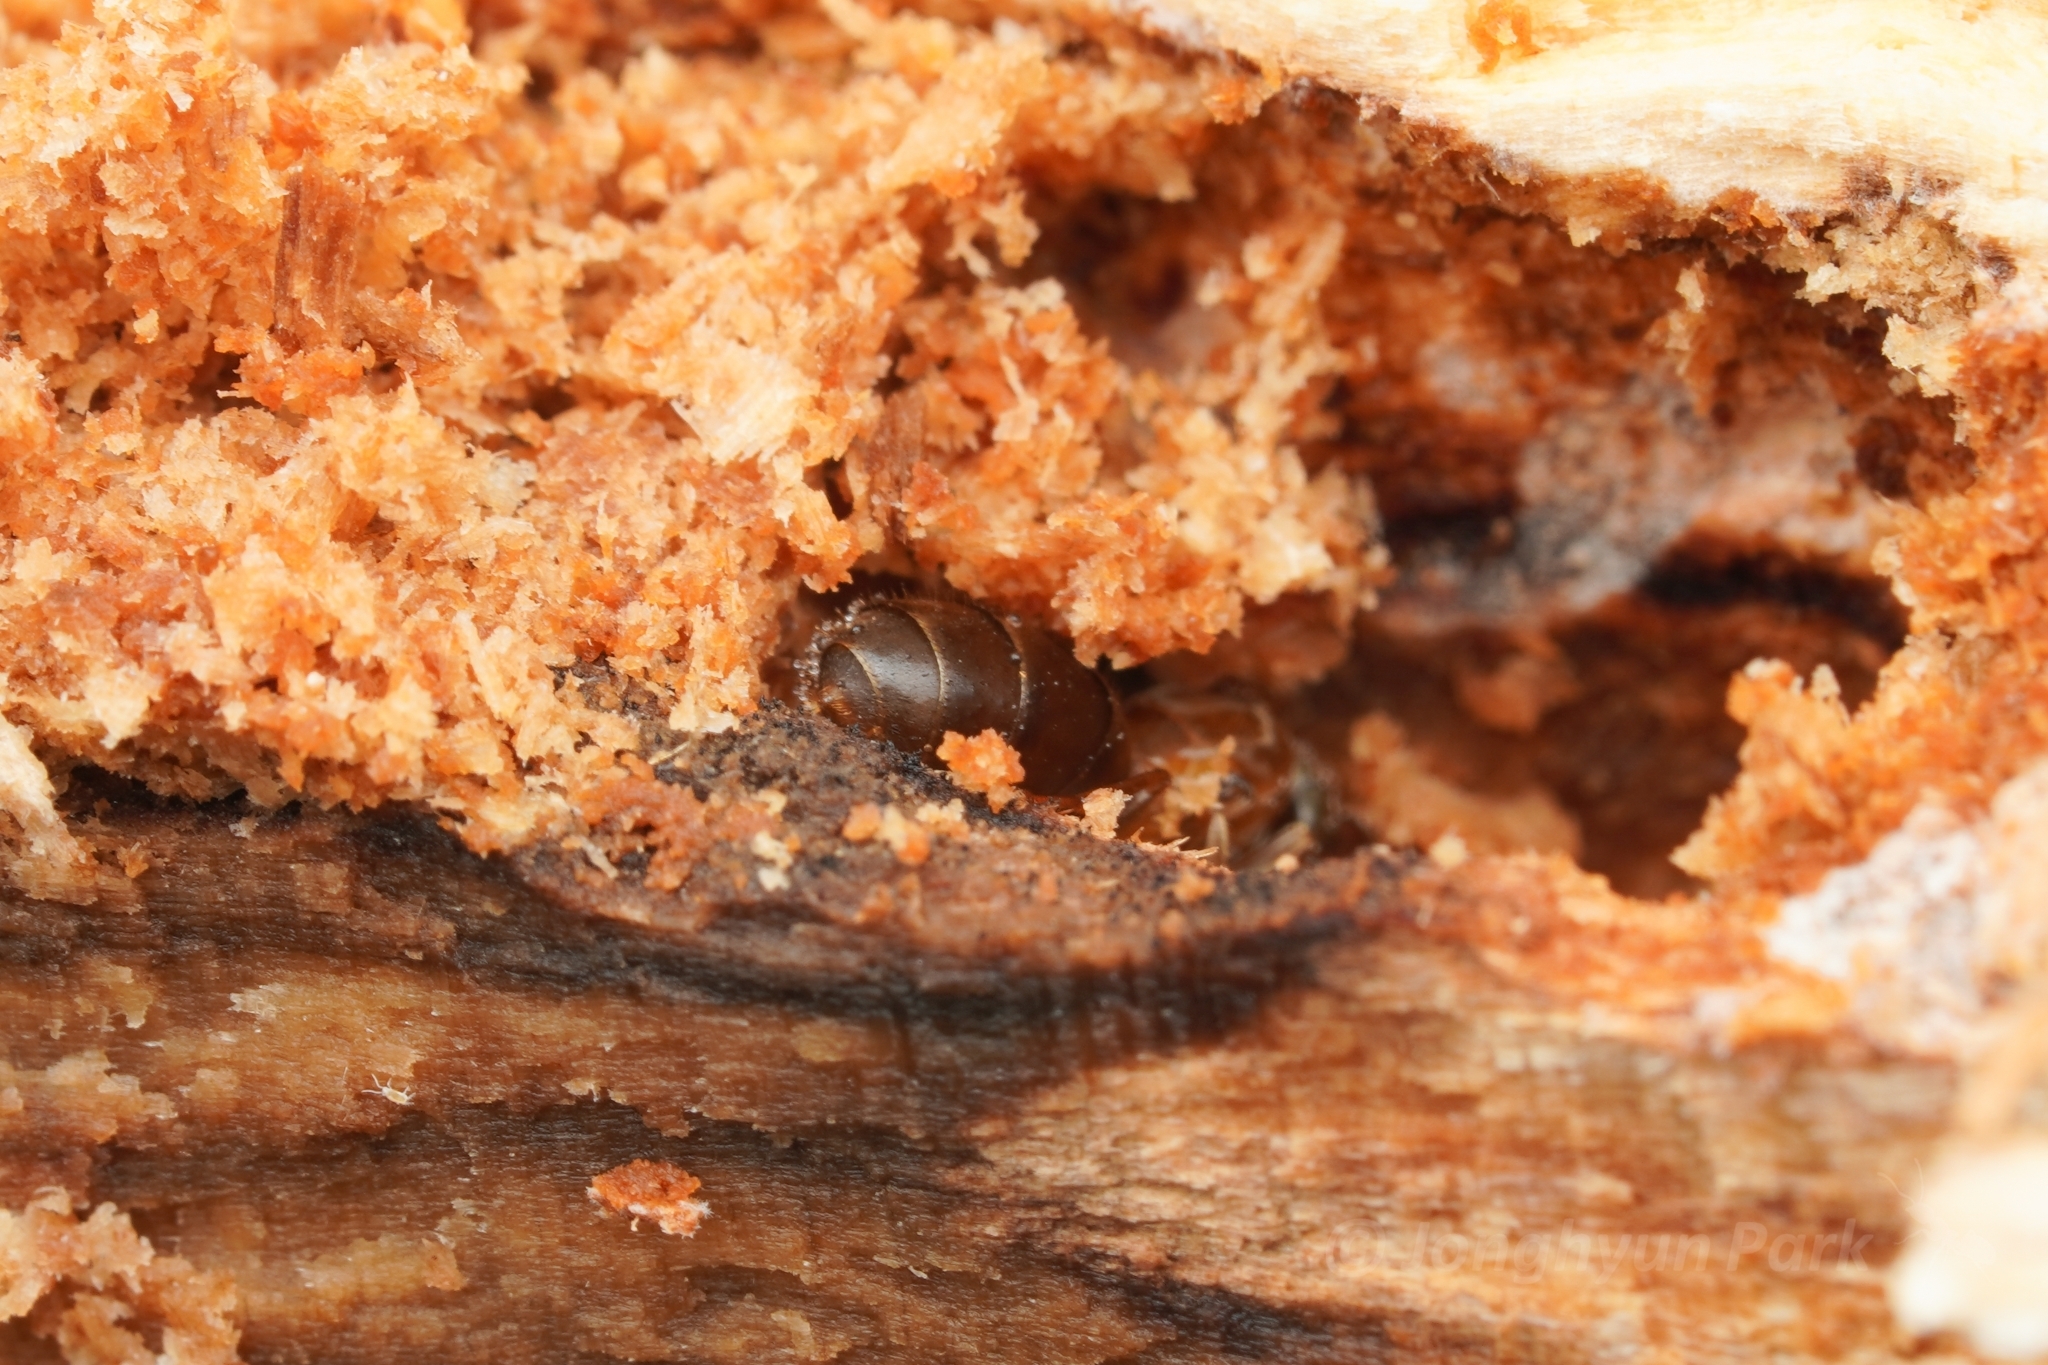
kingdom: Animalia
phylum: Arthropoda
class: Insecta
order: Hymenoptera
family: Formicidae
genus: Lasius
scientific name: Lasius emarginatus
